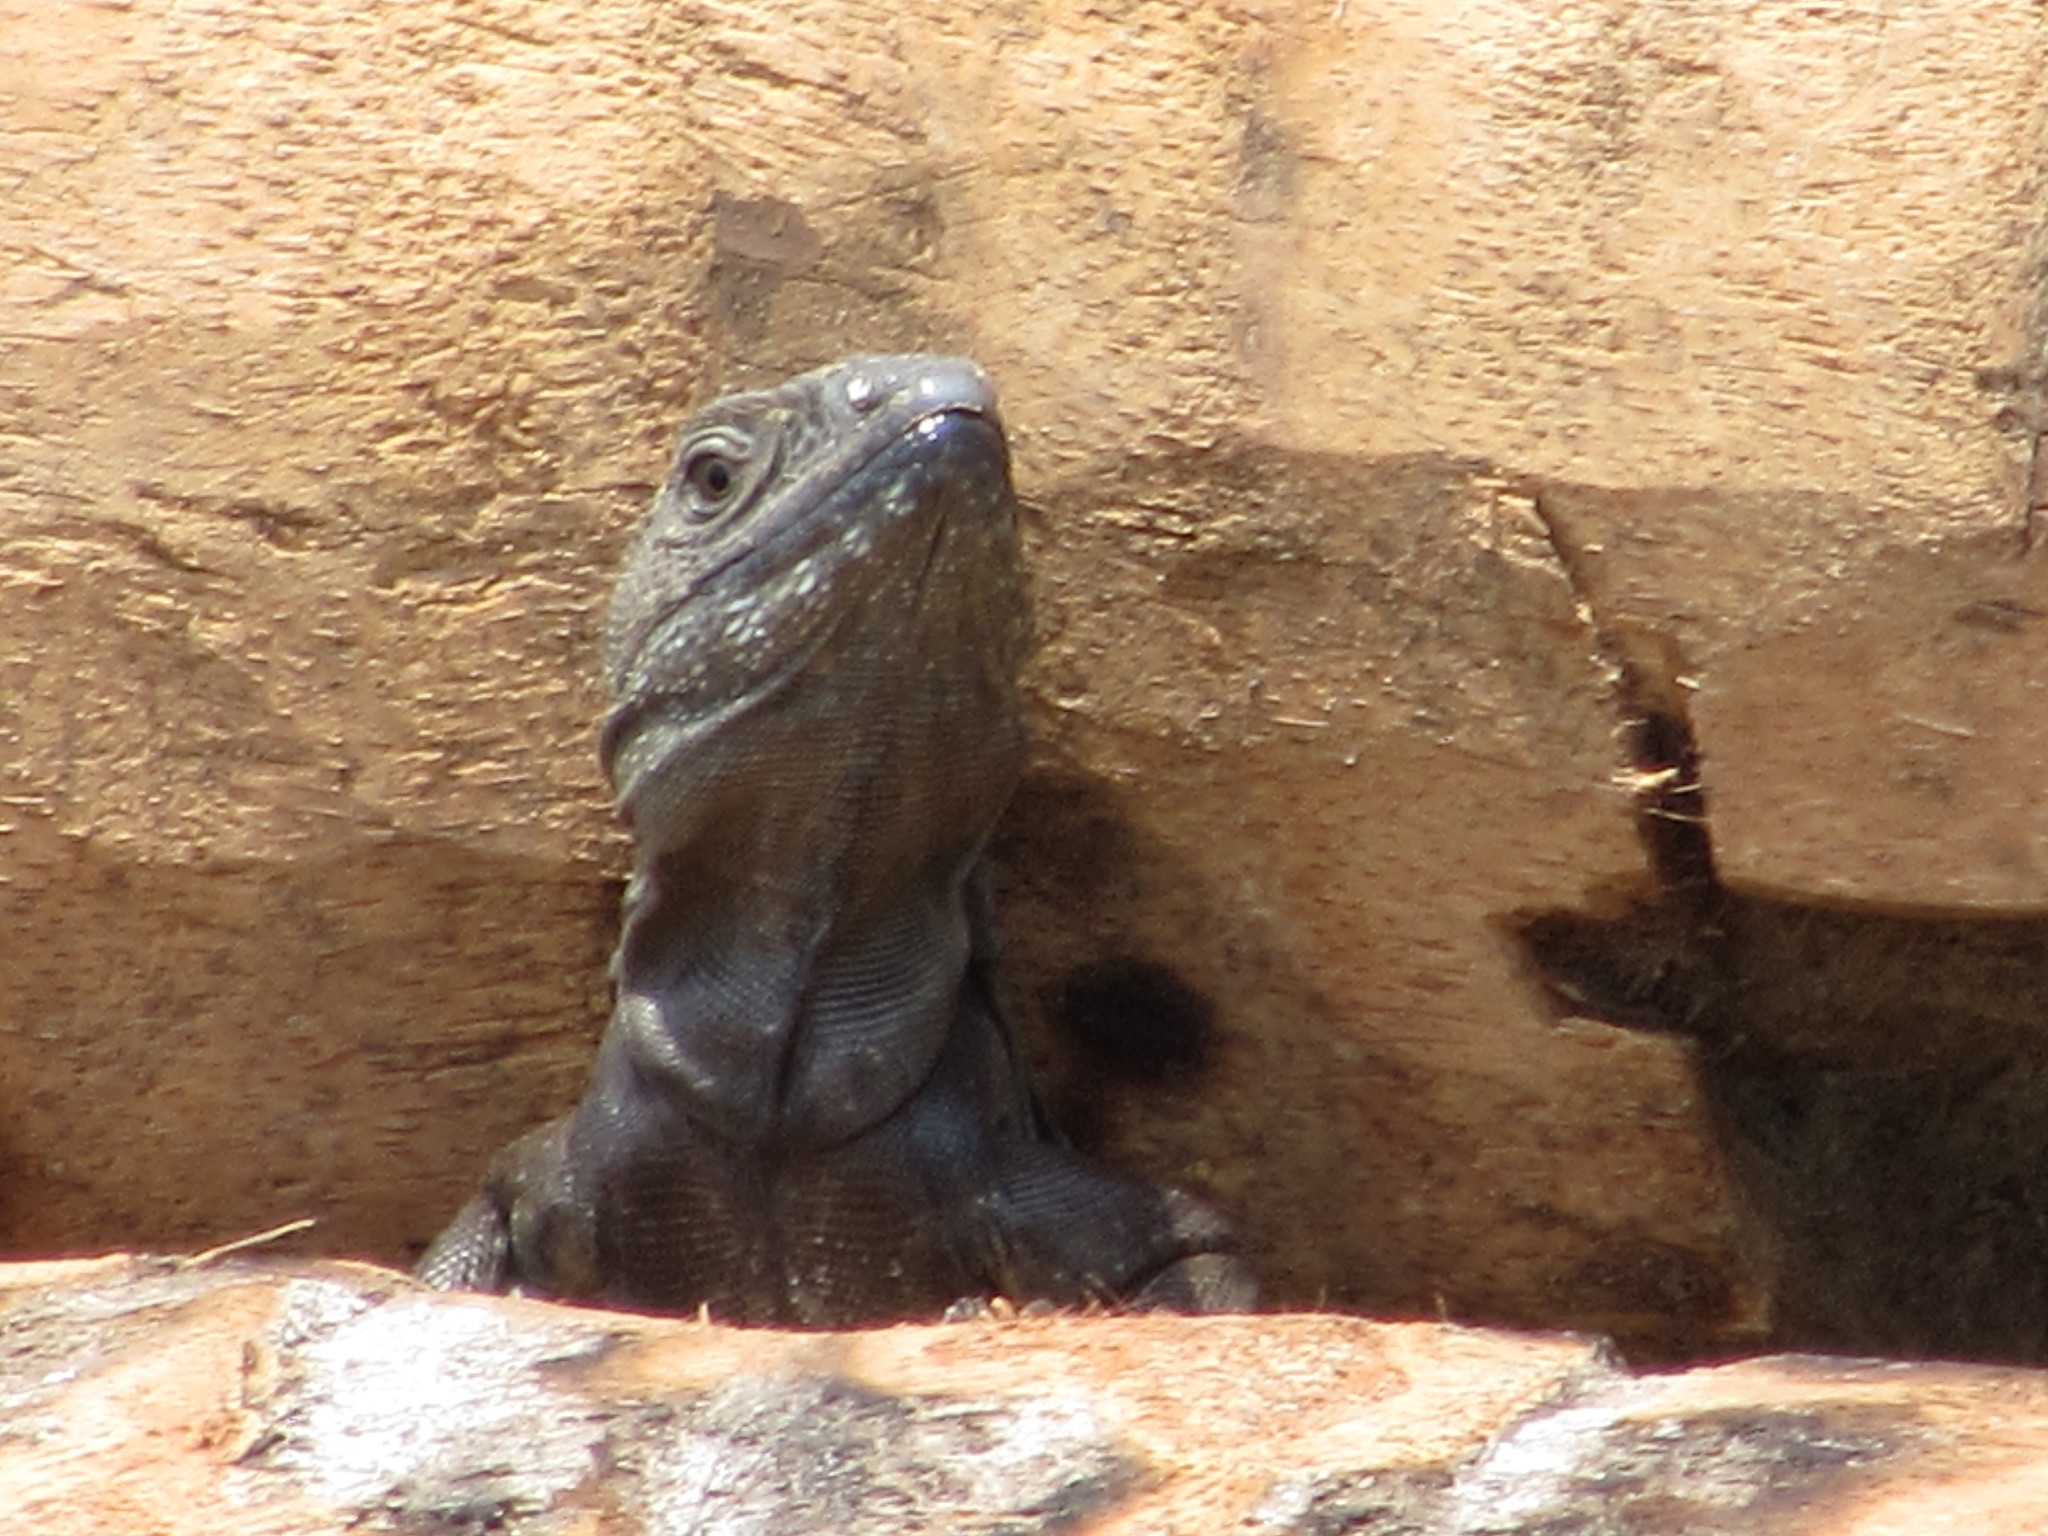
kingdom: Animalia
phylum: Chordata
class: Squamata
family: Iguanidae
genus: Ctenosaura
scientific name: Ctenosaura acanthura
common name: Northeastern spinytail iguana
